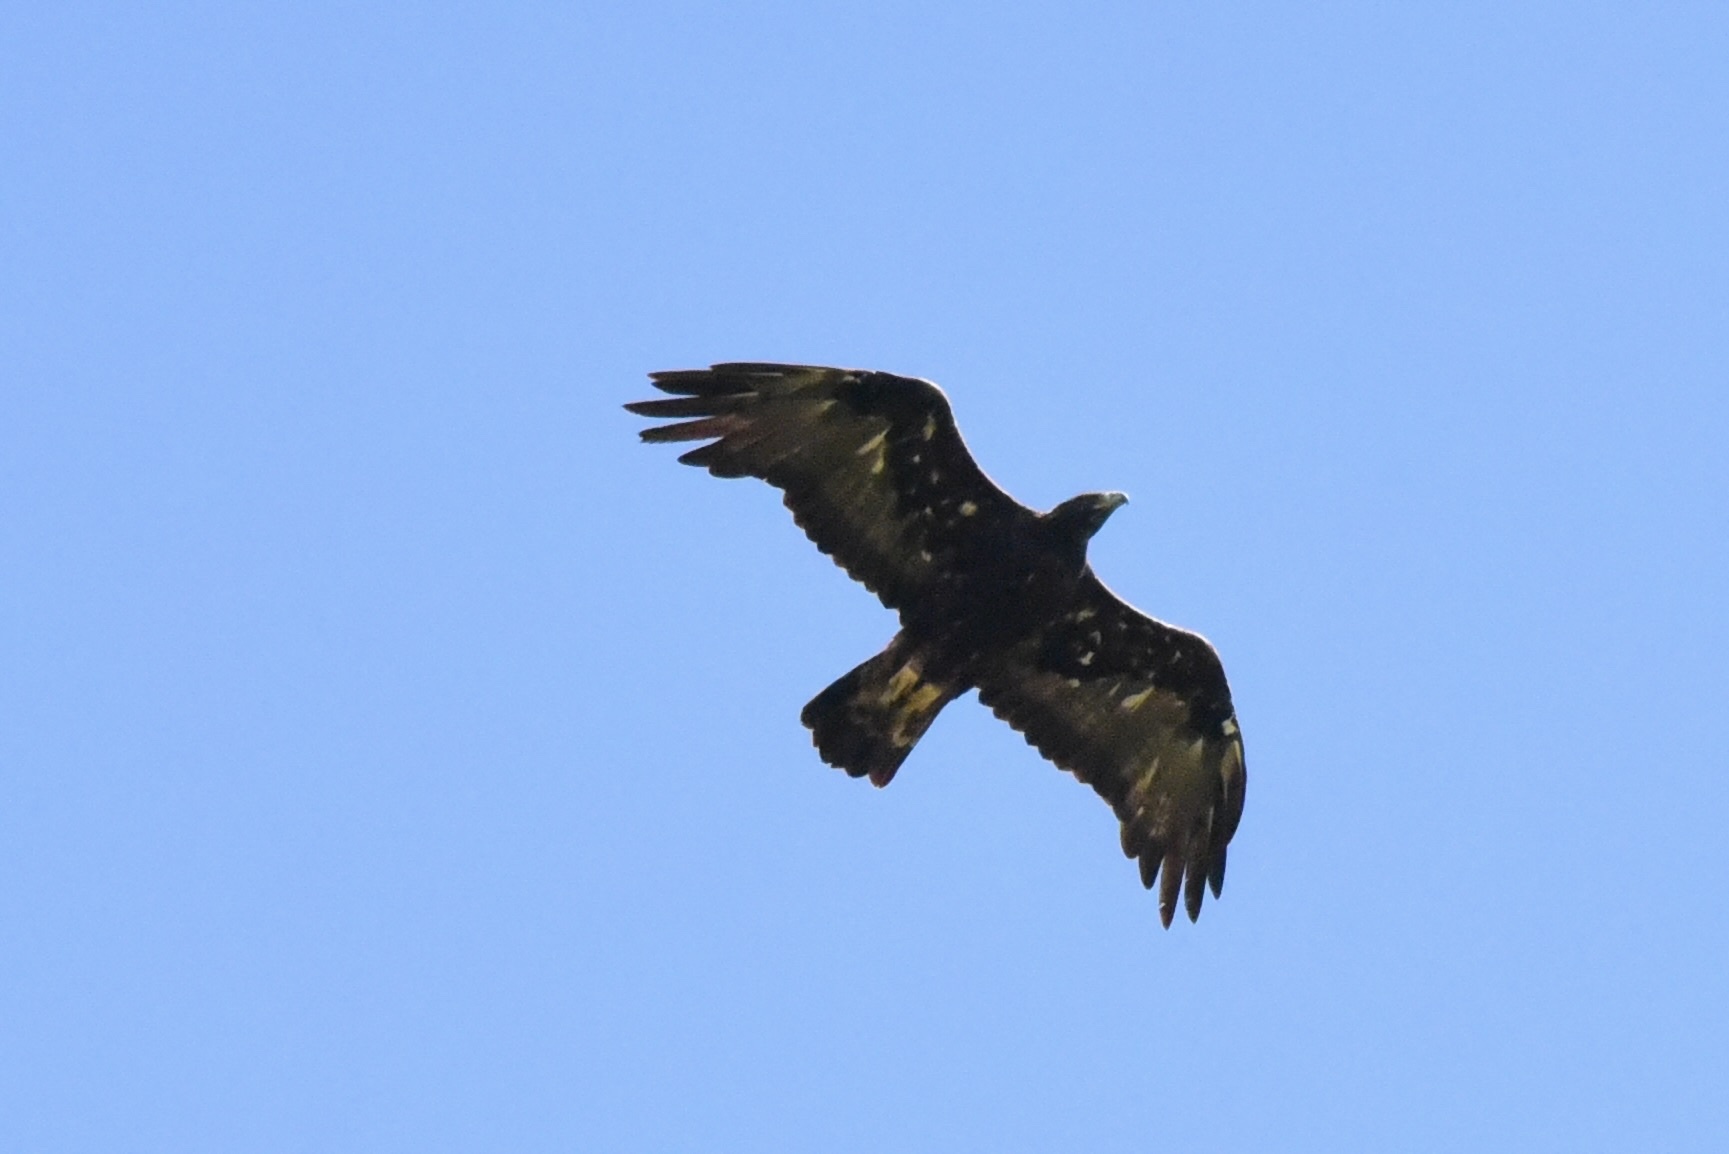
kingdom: Animalia
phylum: Chordata
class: Aves
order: Accipitriformes
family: Accipitridae
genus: Aquila
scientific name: Aquila chrysaetos
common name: Golden eagle
